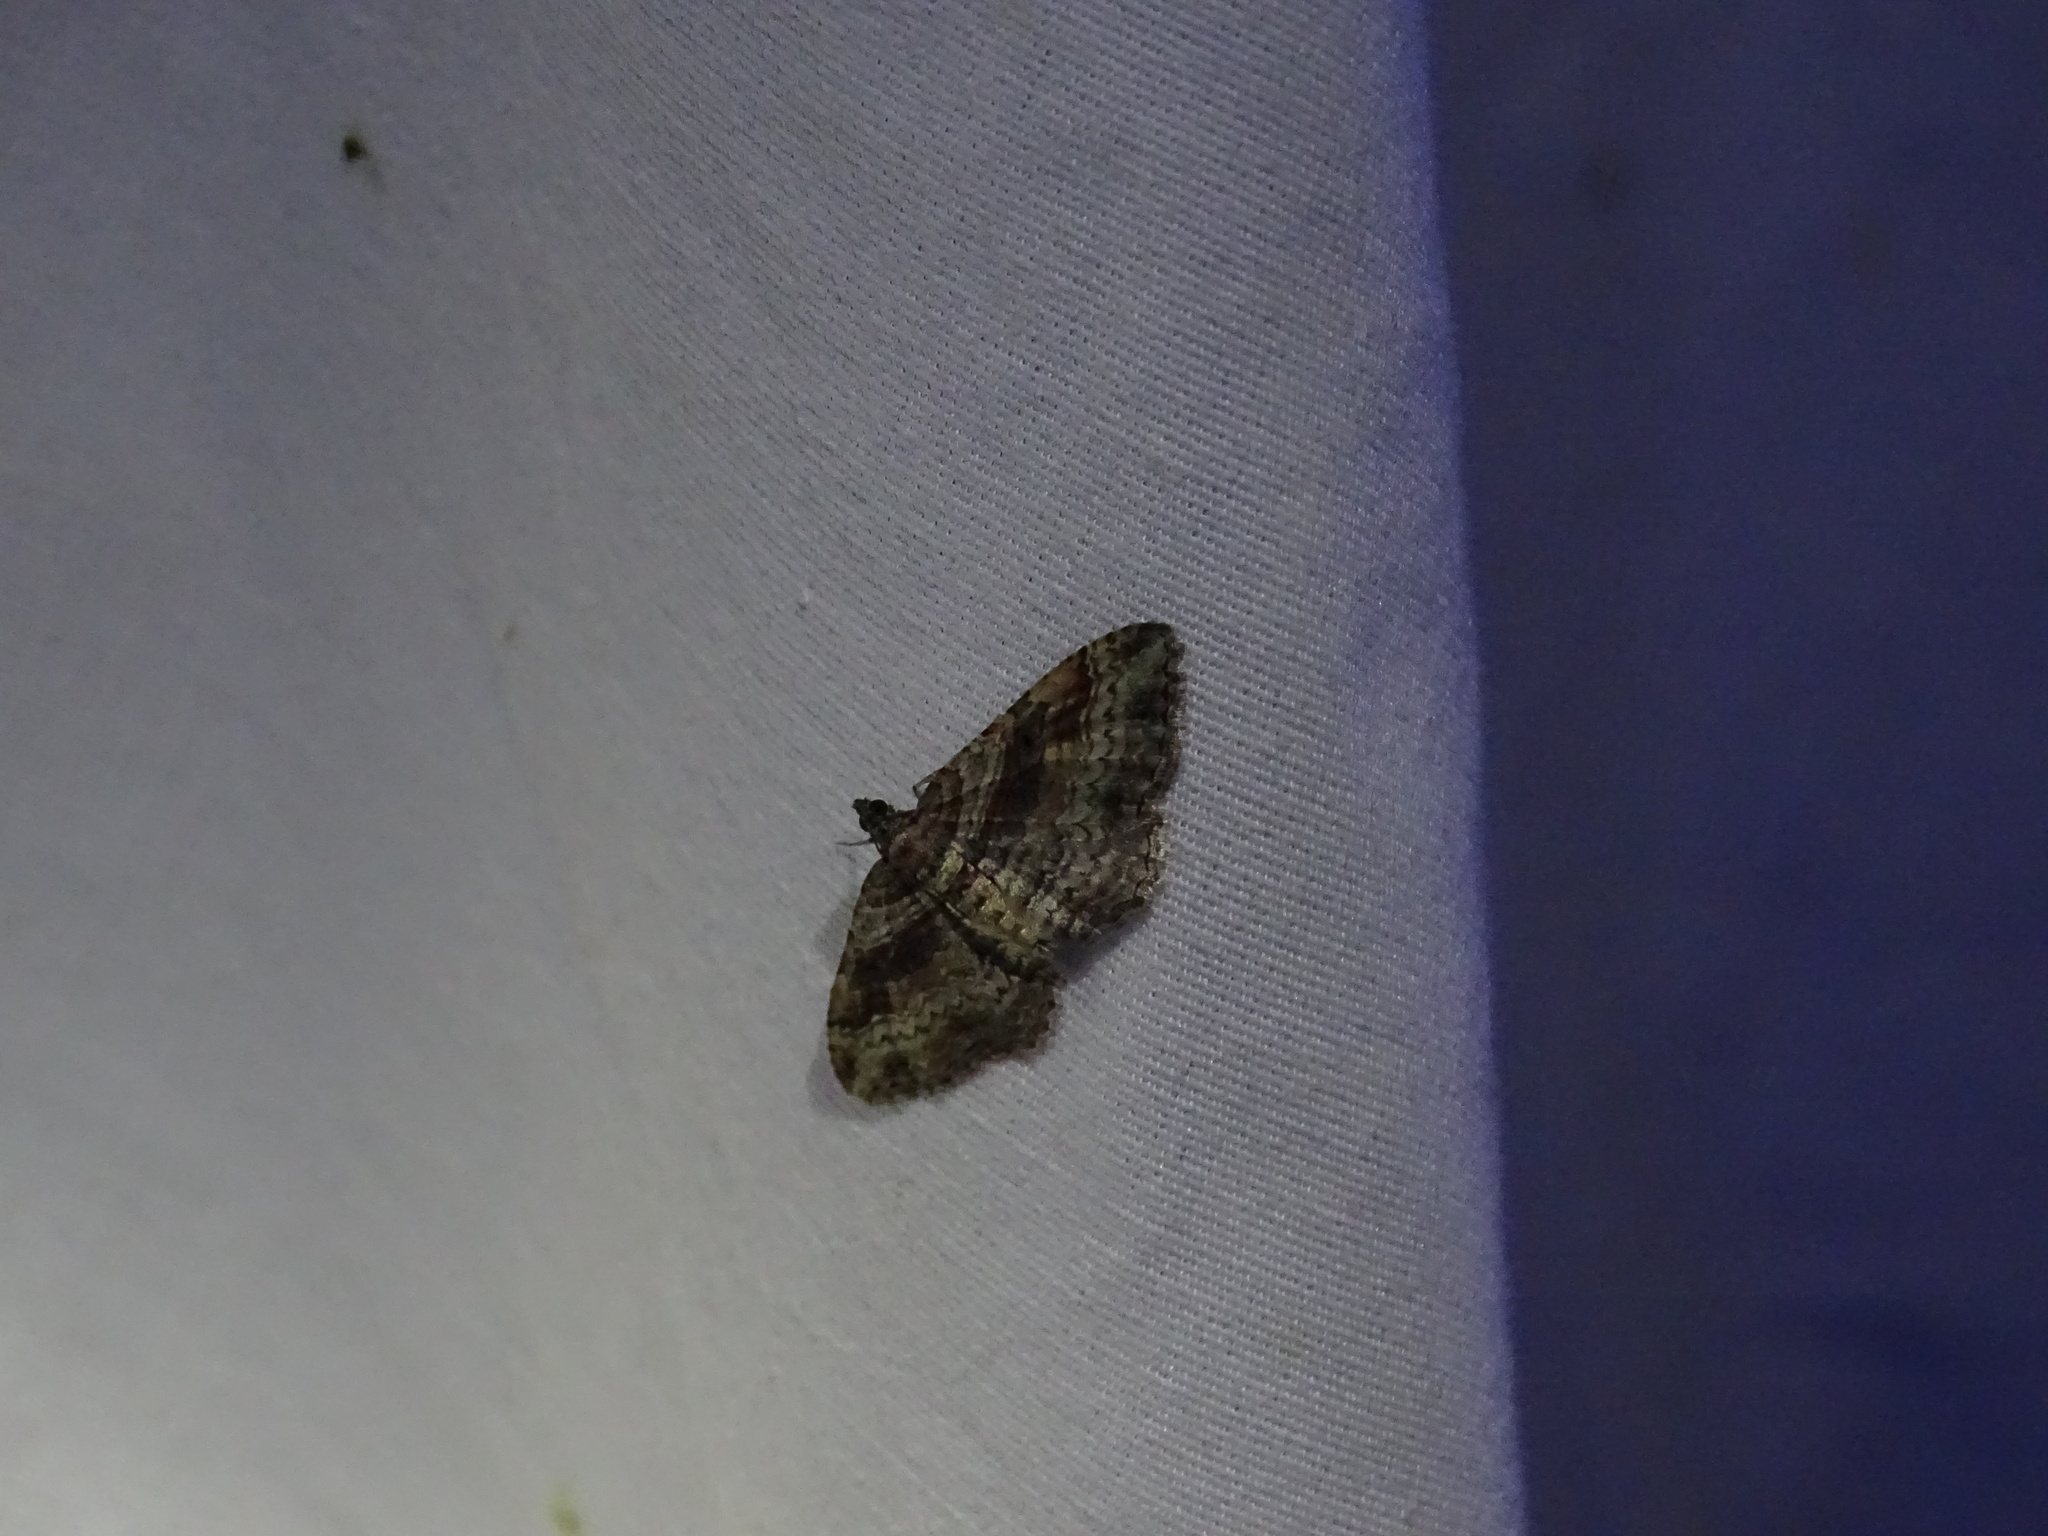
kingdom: Animalia
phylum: Arthropoda
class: Insecta
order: Lepidoptera
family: Geometridae
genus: Costaconvexa
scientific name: Costaconvexa centrostrigaria
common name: Bent-line carpet
